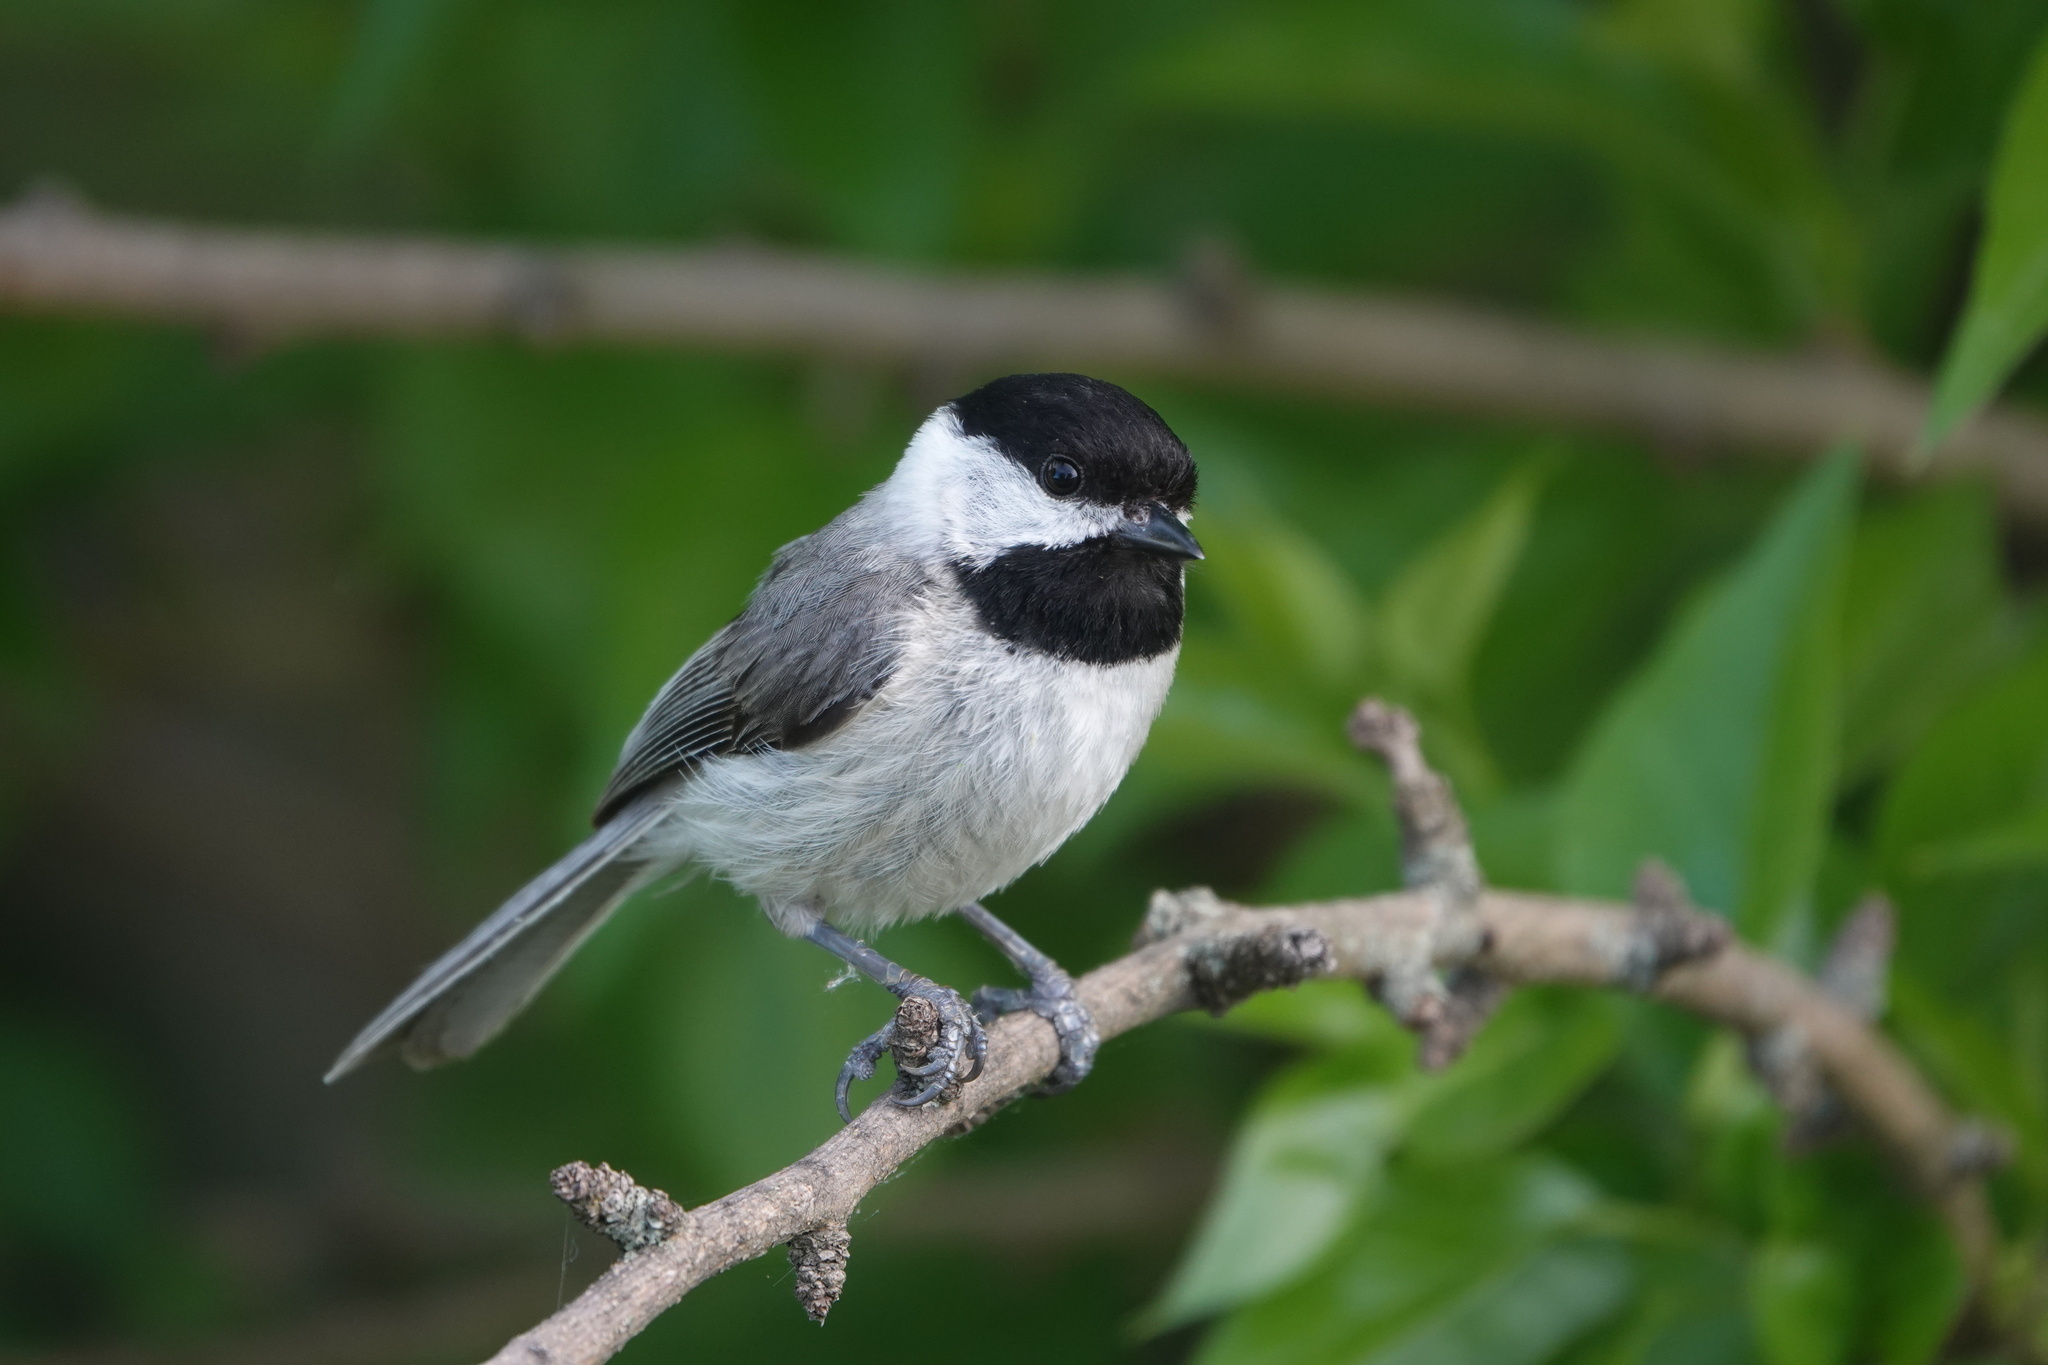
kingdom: Animalia
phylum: Chordata
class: Aves
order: Passeriformes
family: Paridae
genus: Poecile
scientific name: Poecile carolinensis
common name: Carolina chickadee
